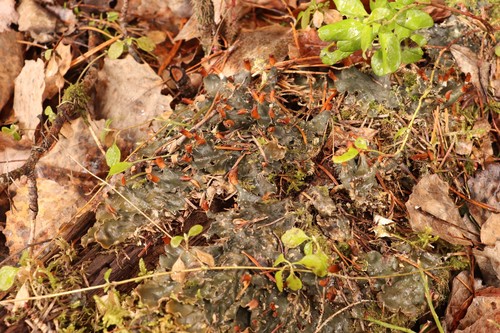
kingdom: Fungi
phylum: Ascomycota
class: Lecanoromycetes
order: Peltigerales
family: Peltigeraceae
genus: Peltigera
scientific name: Peltigera polydactylon
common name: Many-fruited pelt lichen
